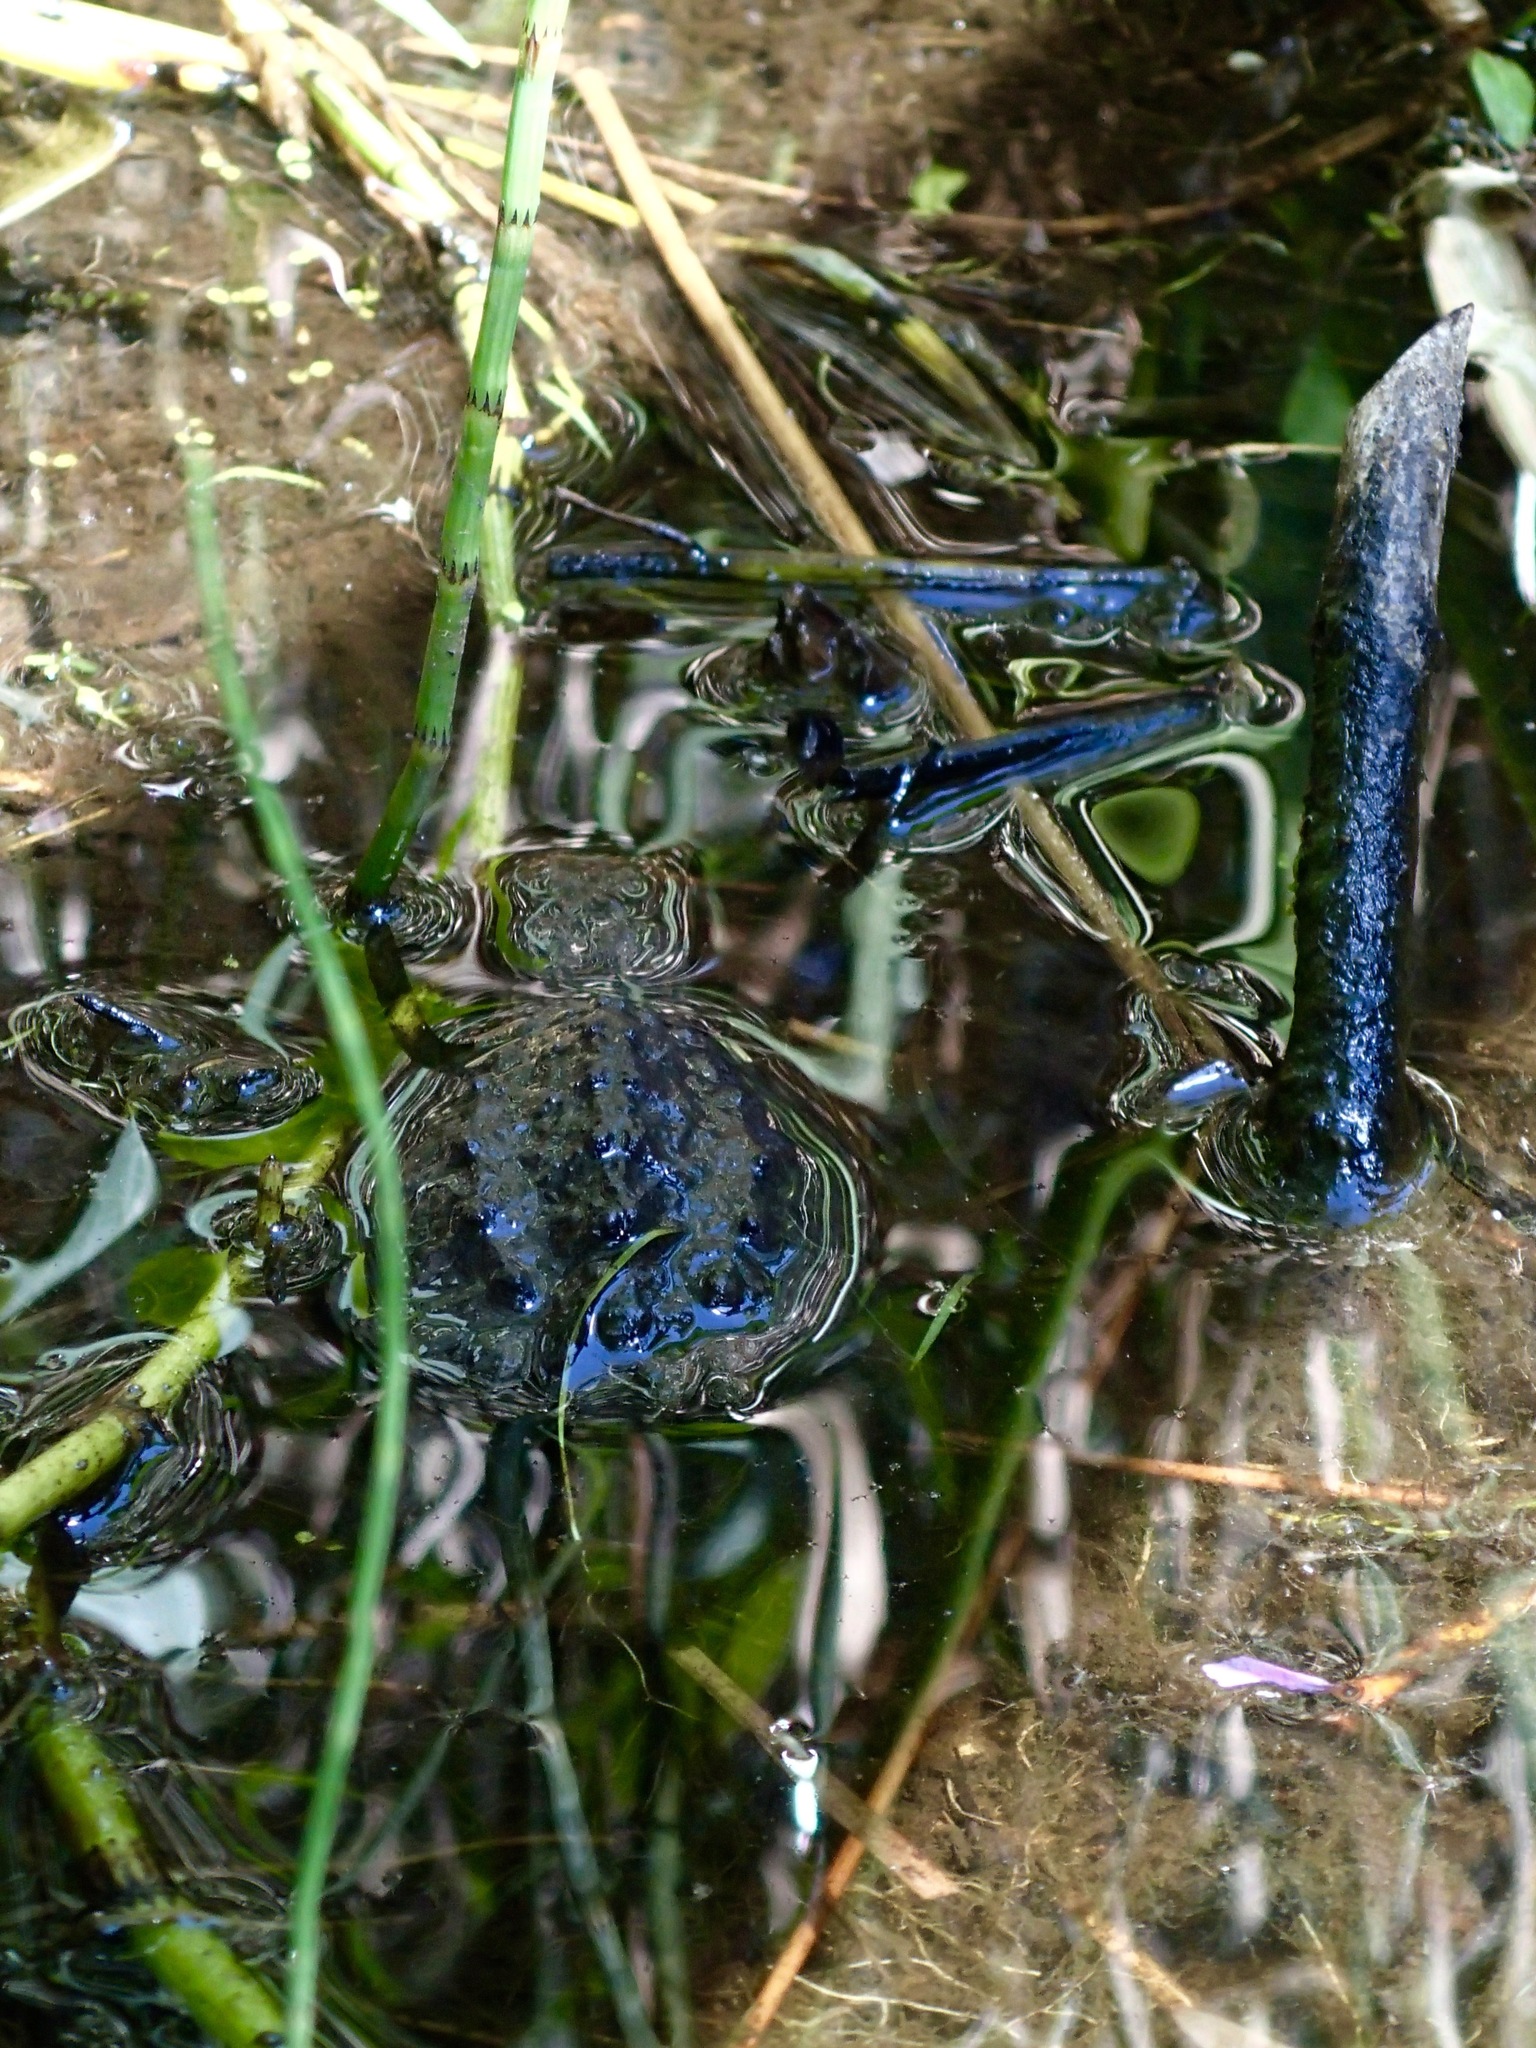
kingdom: Animalia
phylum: Chordata
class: Testudines
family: Chelydridae
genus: Chelydra
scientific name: Chelydra serpentina
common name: Common snapping turtle
